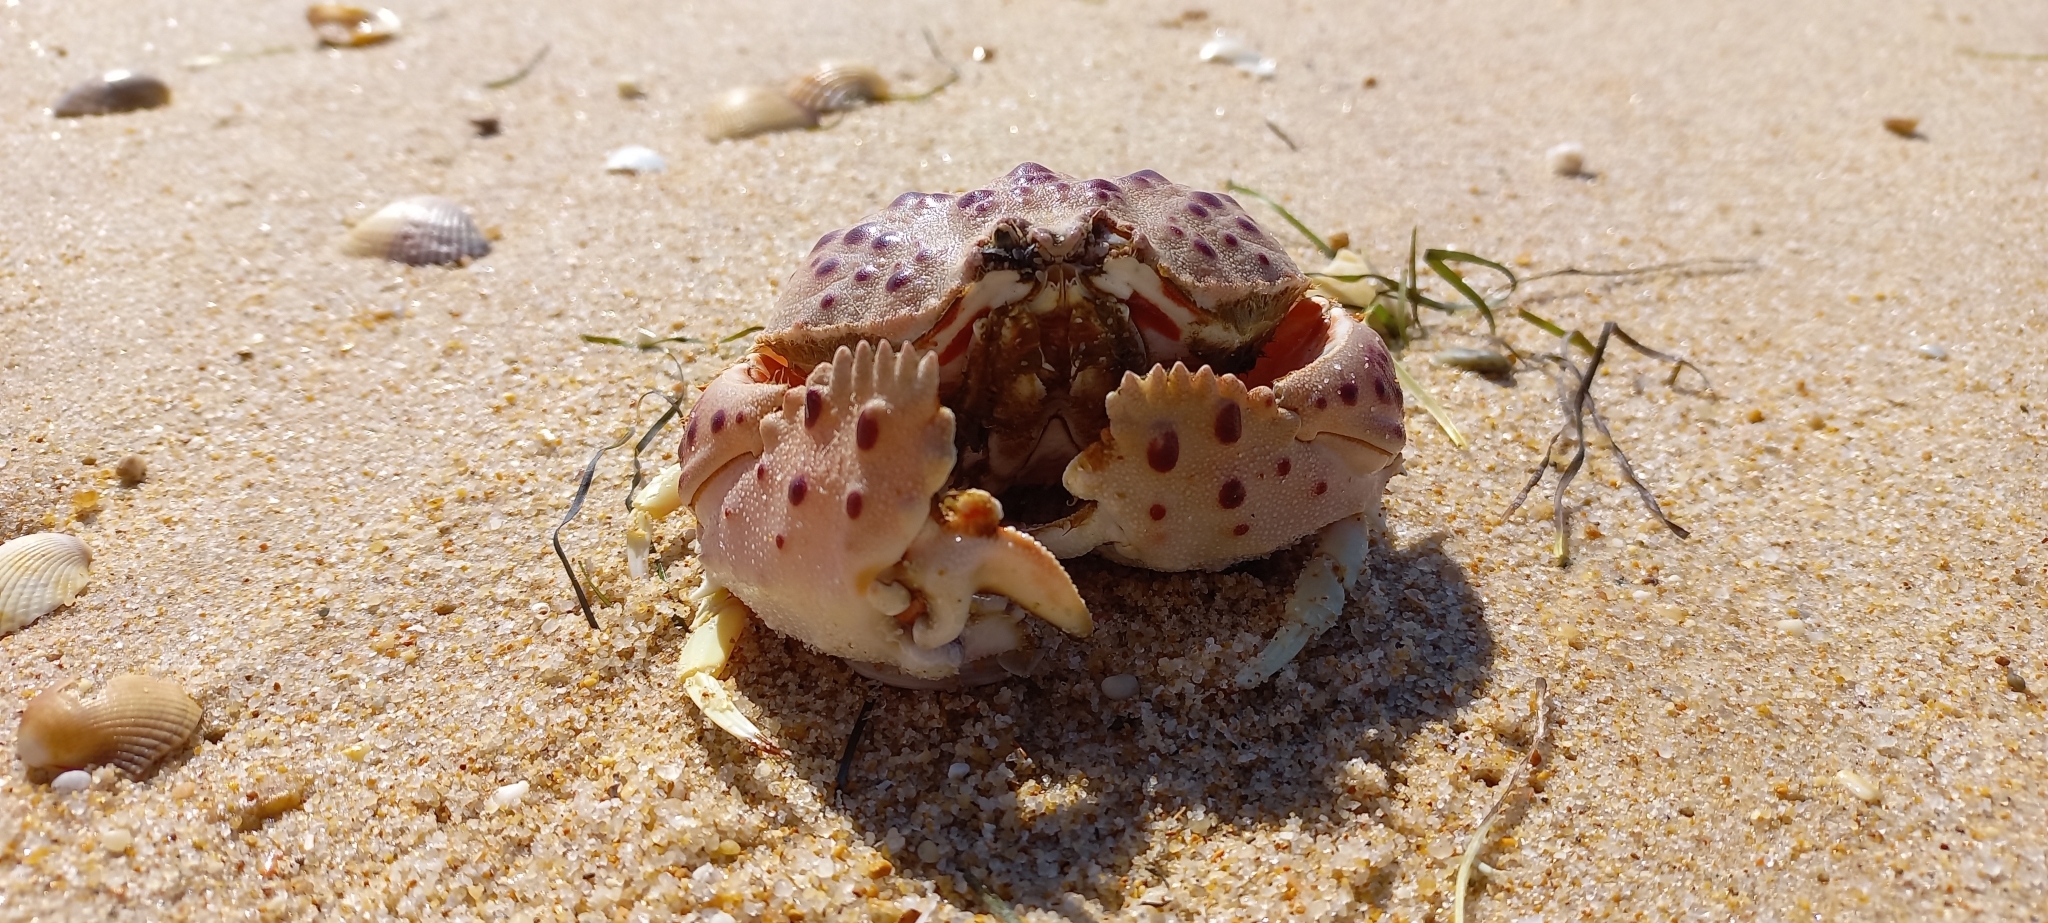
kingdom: Animalia
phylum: Arthropoda
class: Malacostraca
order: Decapoda
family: Calappidae
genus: Calappa
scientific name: Calappa granulata
